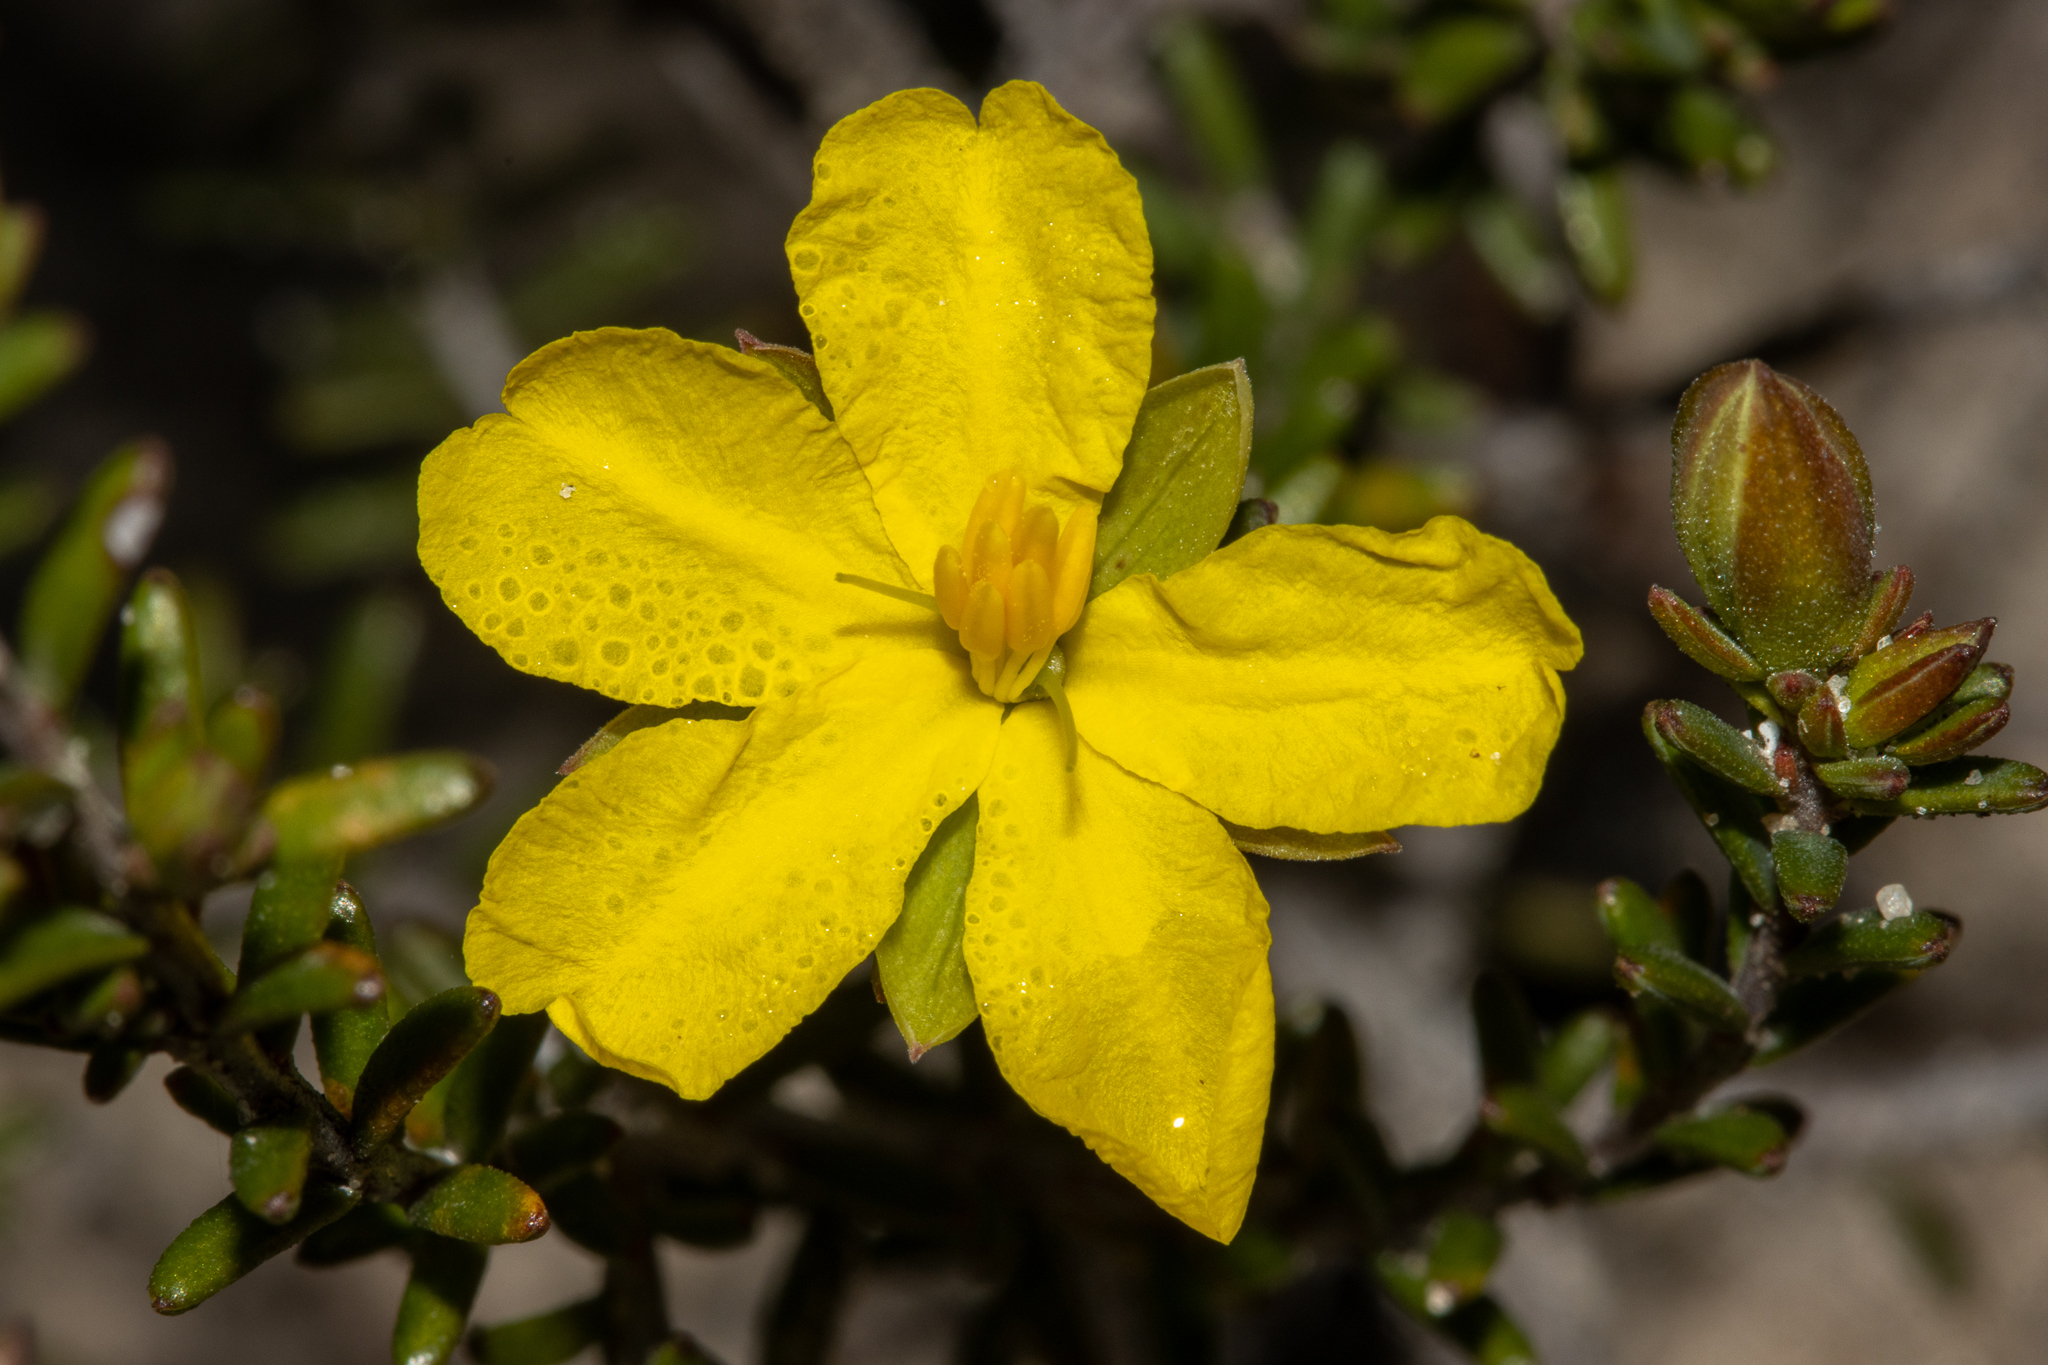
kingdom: Plantae
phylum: Tracheophyta
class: Magnoliopsida
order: Dilleniales
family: Dilleniaceae
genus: Hibbertia
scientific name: Hibbertia devitata
